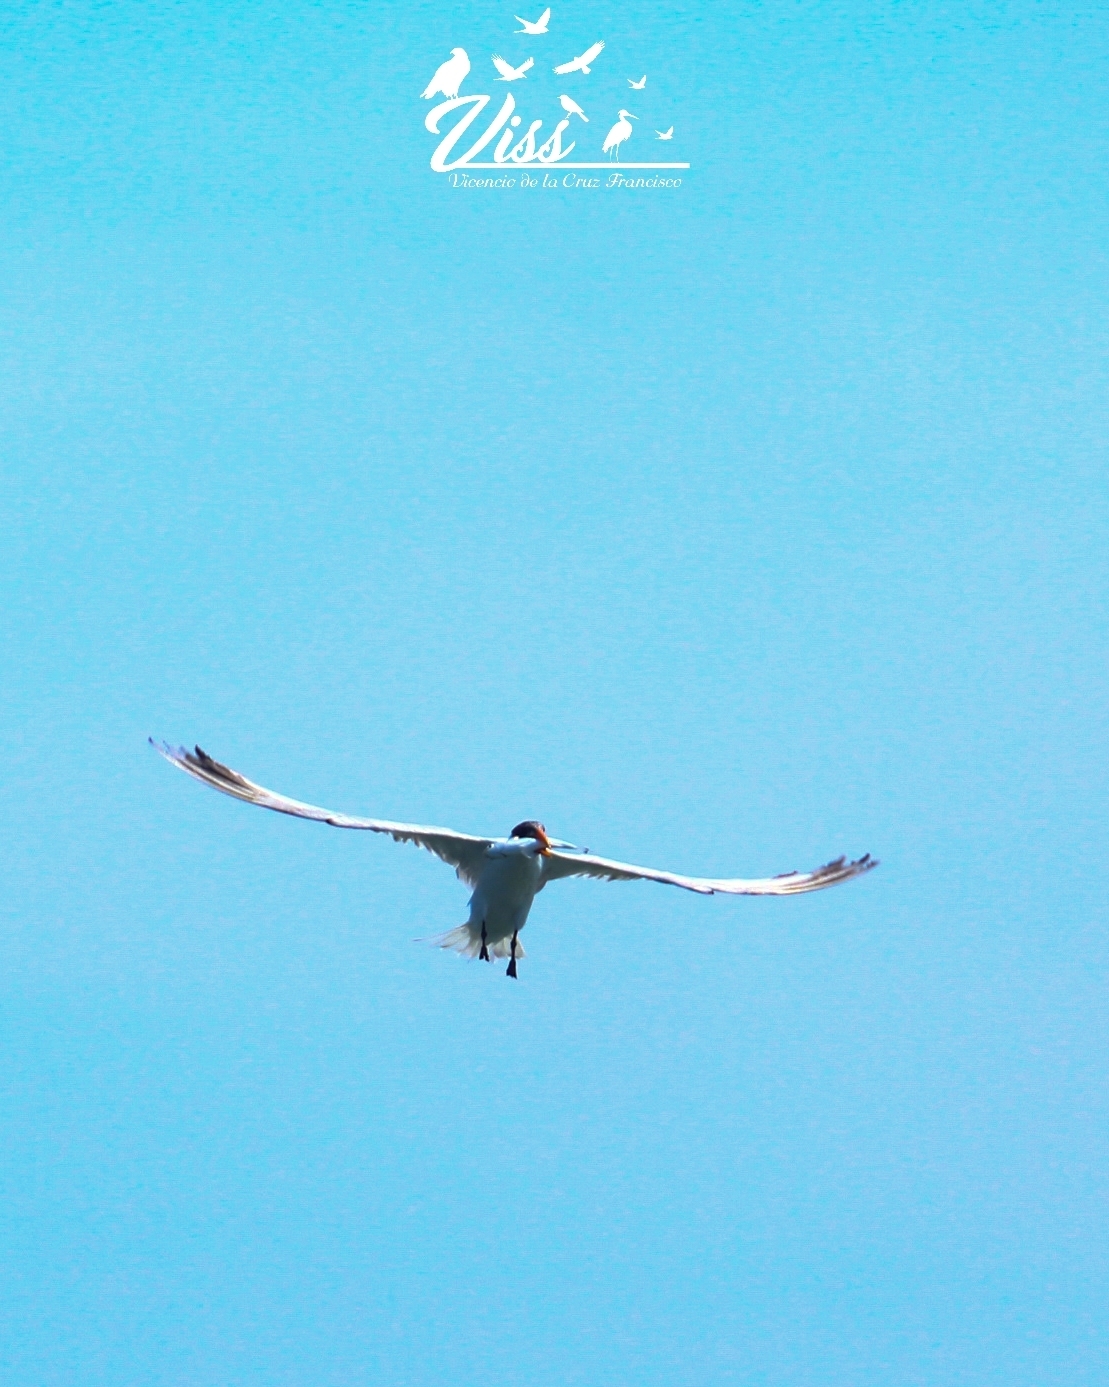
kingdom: Animalia
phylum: Chordata
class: Aves
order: Charadriiformes
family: Laridae
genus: Hydroprogne
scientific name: Hydroprogne caspia
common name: Caspian tern
